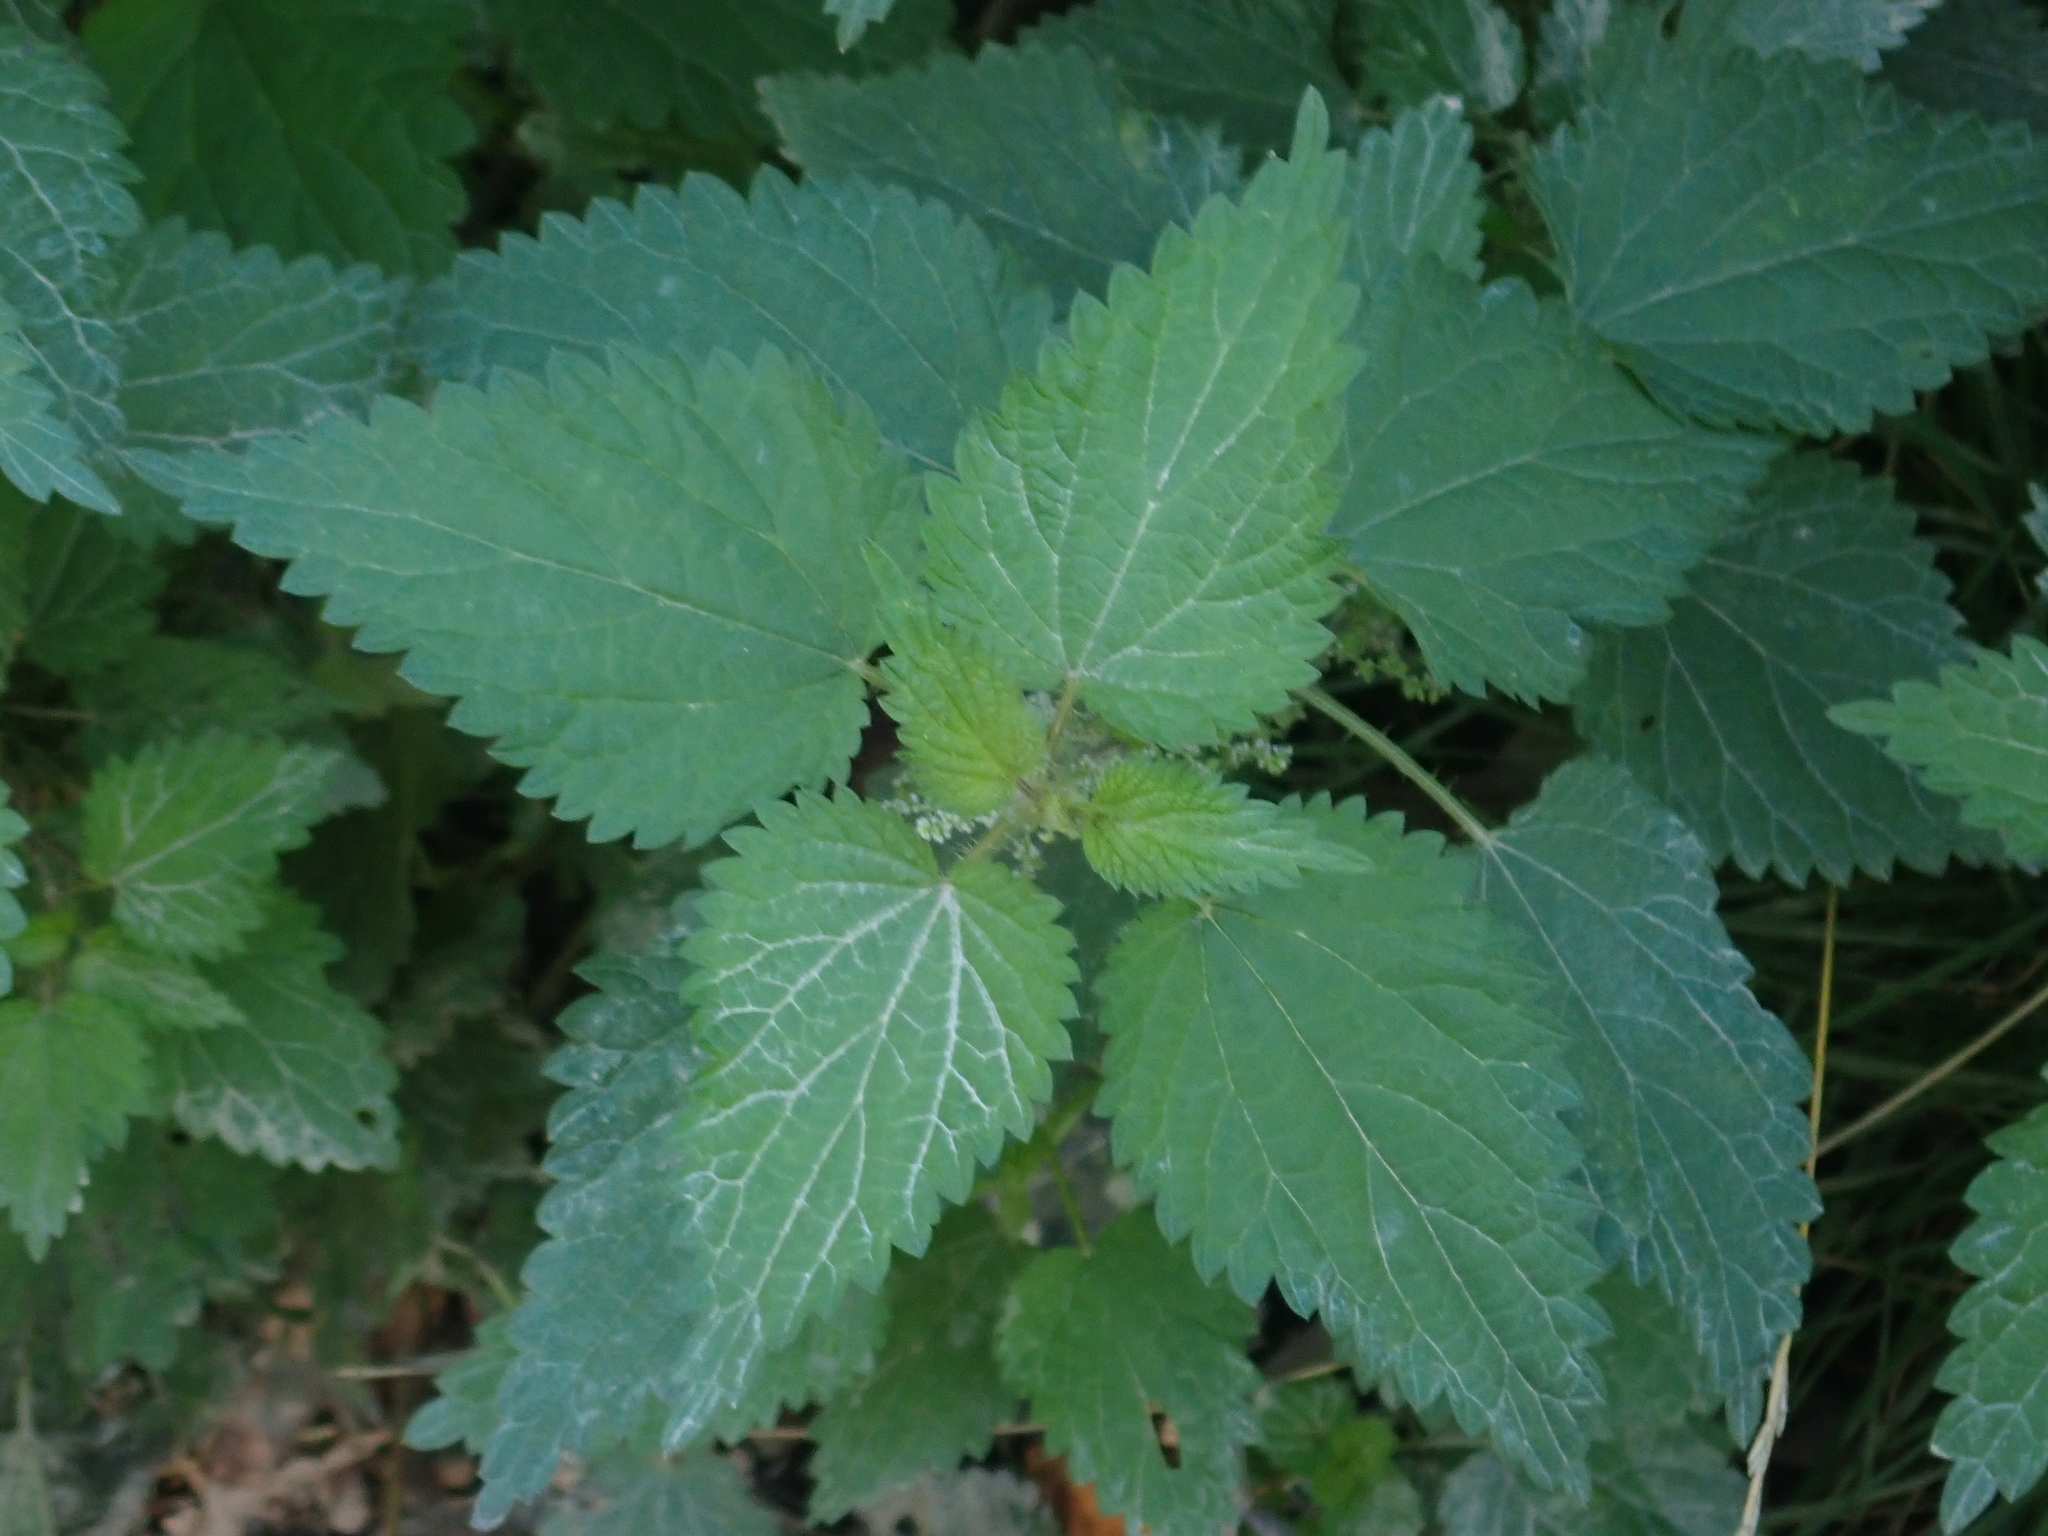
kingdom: Plantae
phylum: Tracheophyta
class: Magnoliopsida
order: Rosales
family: Urticaceae
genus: Urtica
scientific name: Urtica dioica
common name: Common nettle
